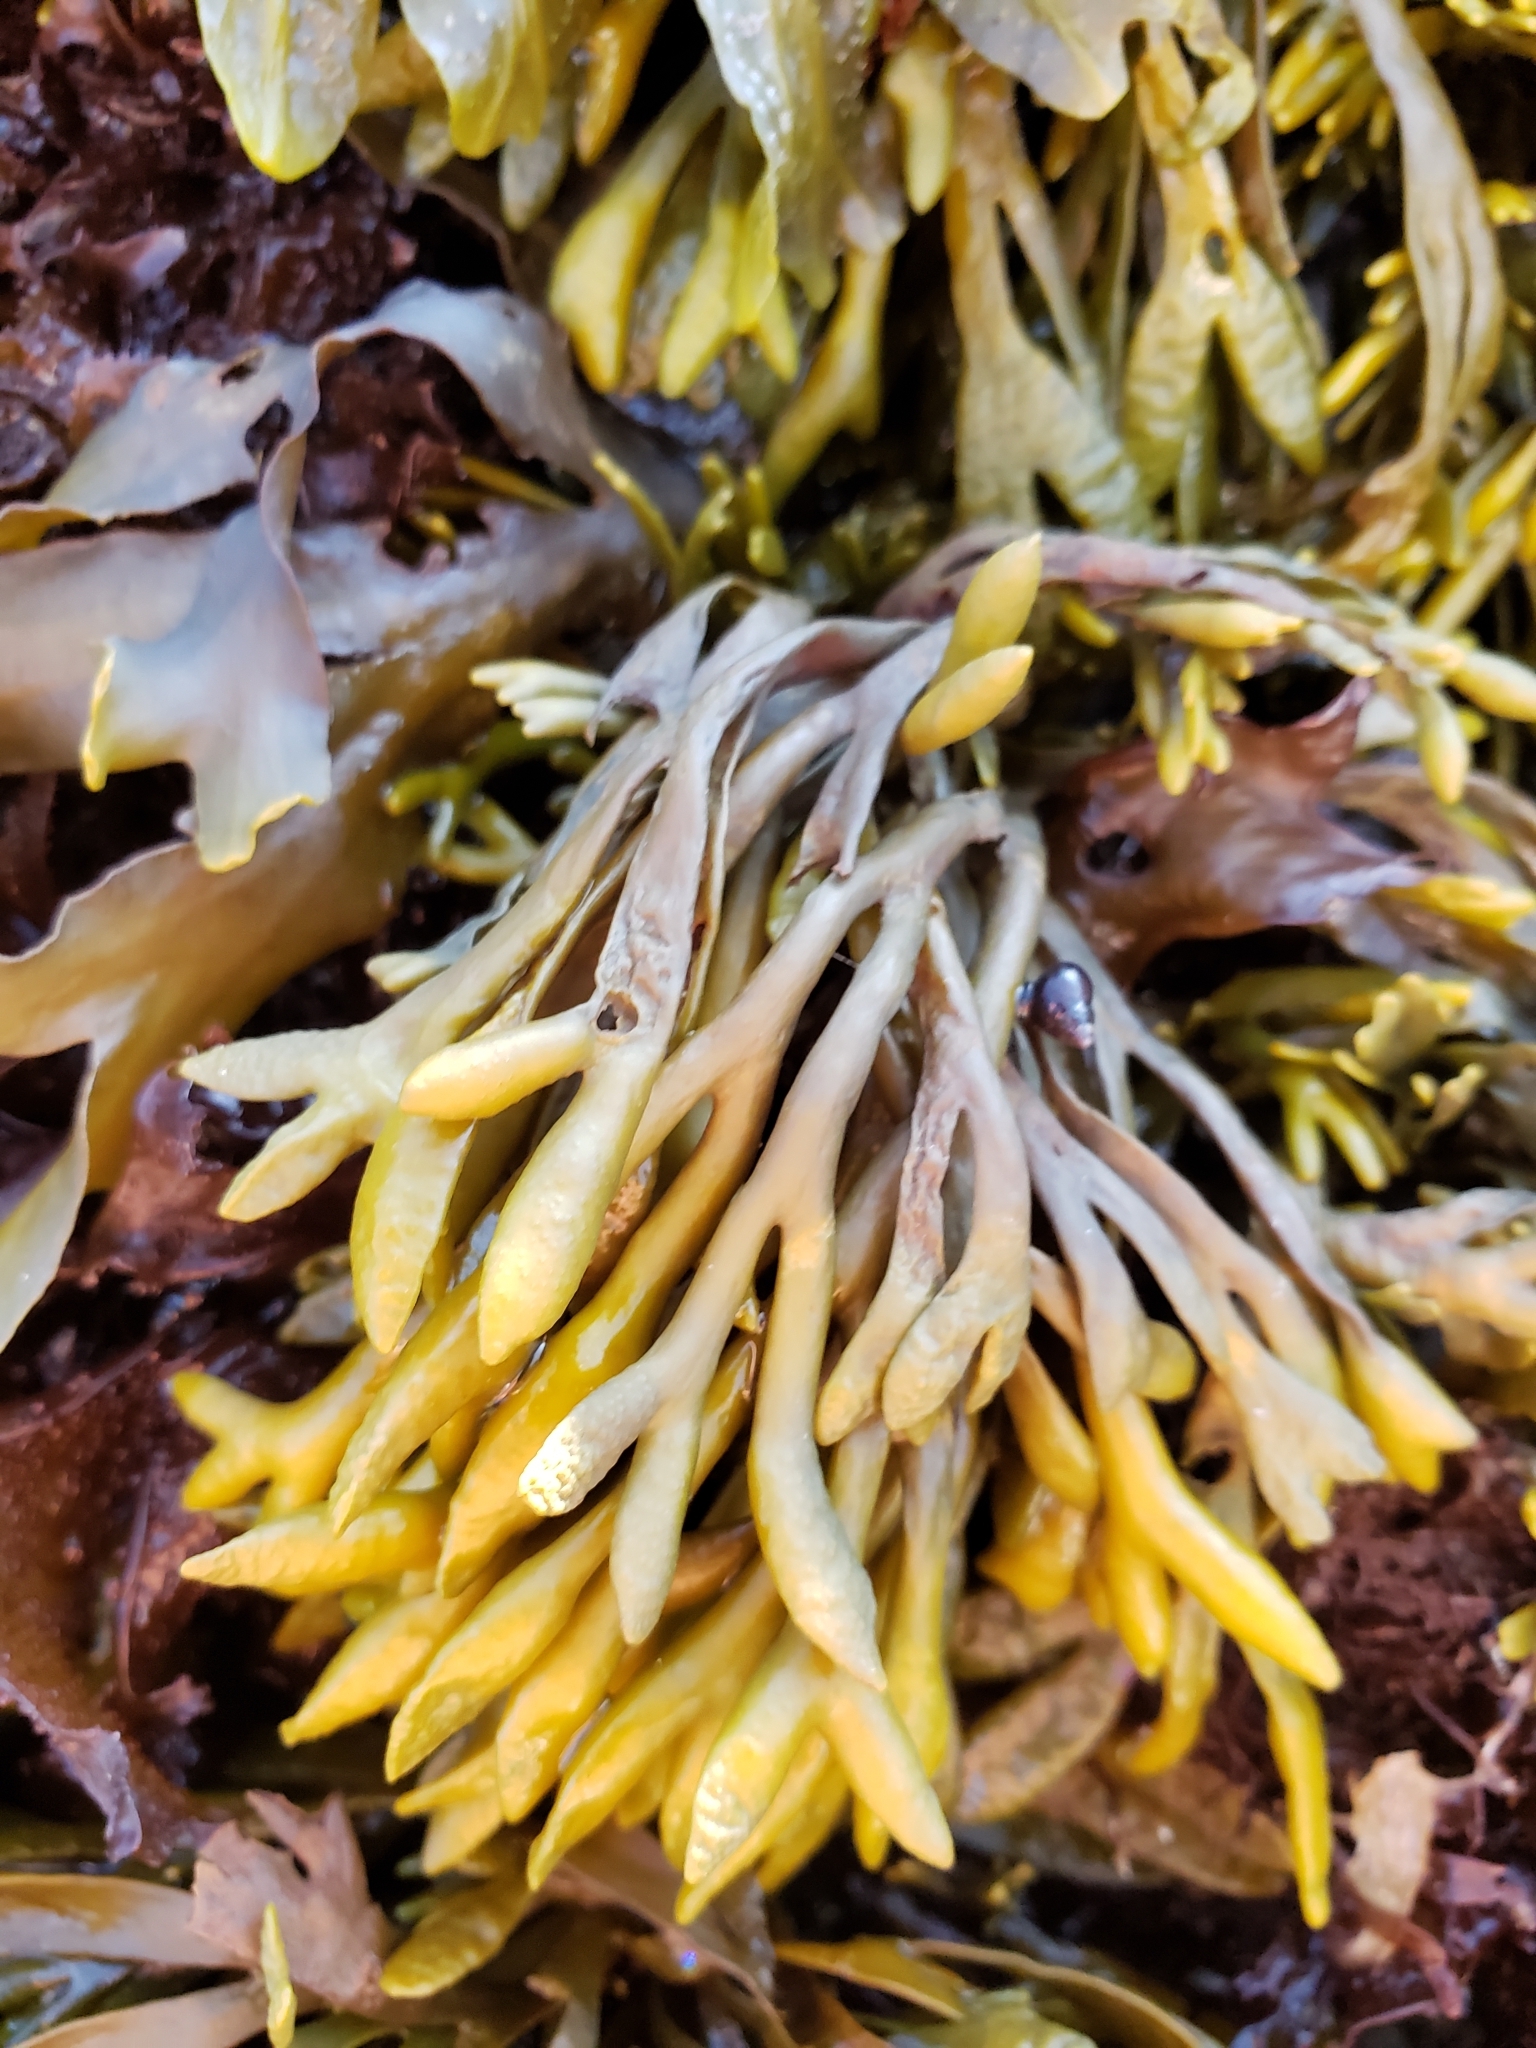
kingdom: Chromista
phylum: Ochrophyta
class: Phaeophyceae
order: Fucales
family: Fucaceae
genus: Pelvetiopsis
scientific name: Pelvetiopsis limitata
